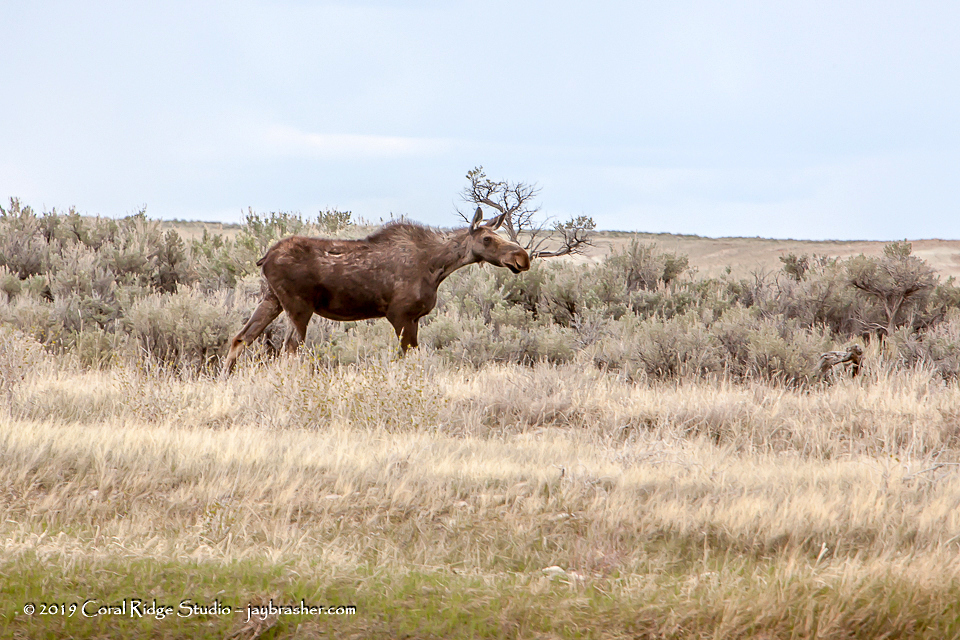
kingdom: Animalia
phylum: Chordata
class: Mammalia
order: Artiodactyla
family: Cervidae
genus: Alces
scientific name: Alces alces
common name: Moose
